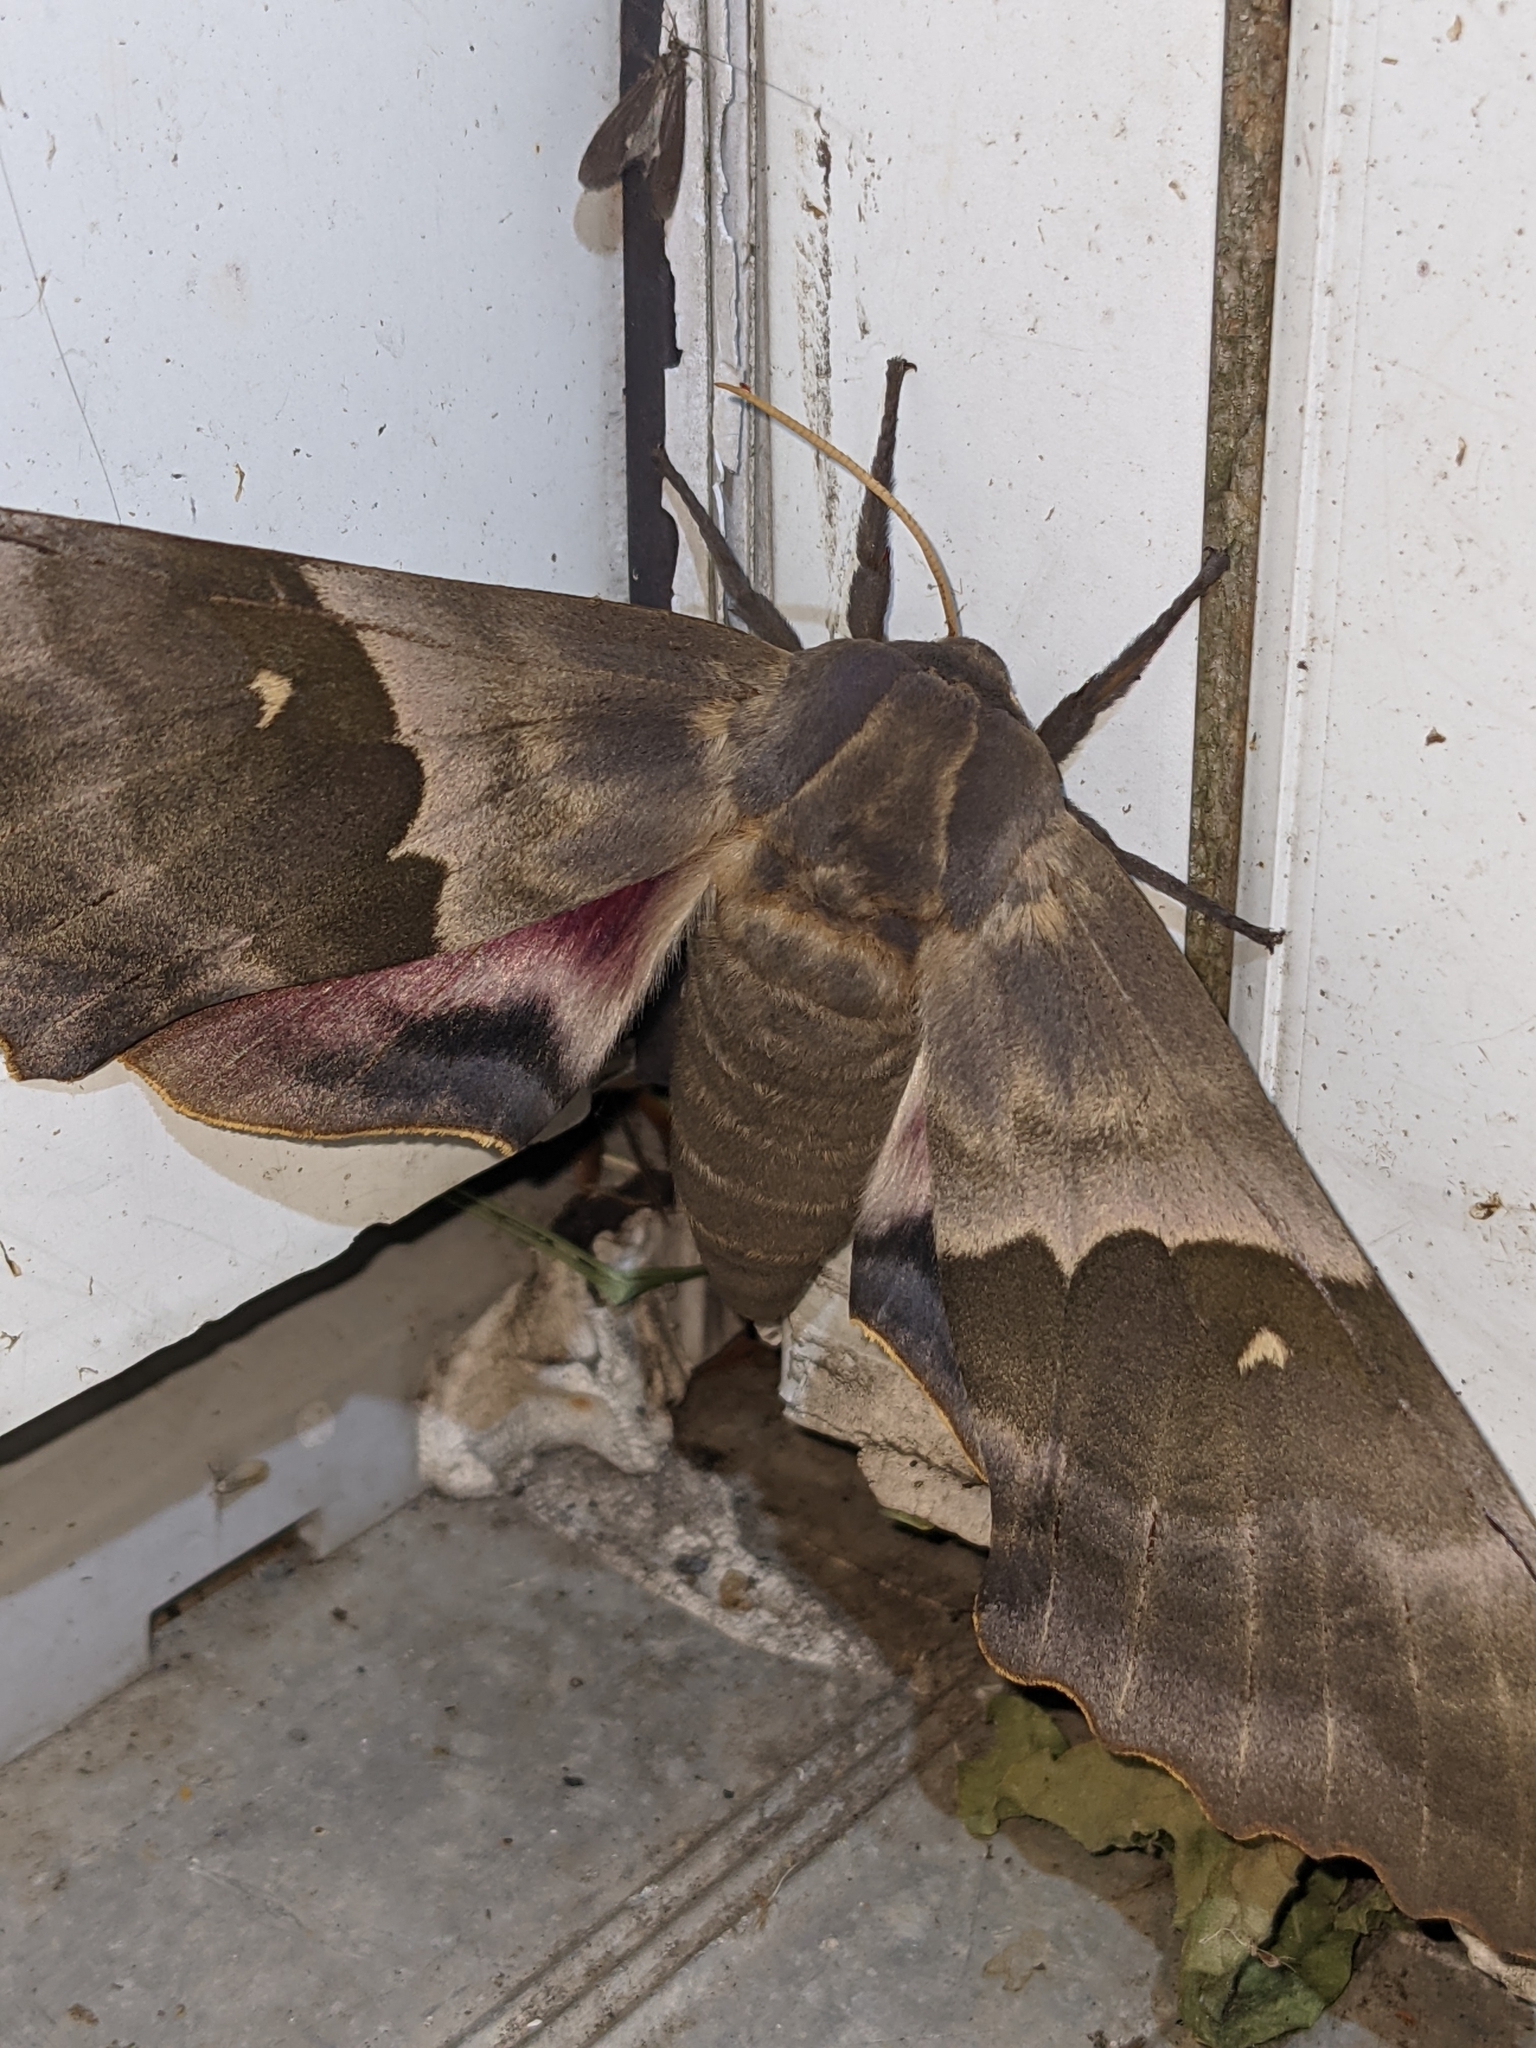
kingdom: Animalia
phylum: Arthropoda
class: Insecta
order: Lepidoptera
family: Sphingidae
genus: Pachysphinx
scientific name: Pachysphinx modesta
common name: Big poplar sphinx
